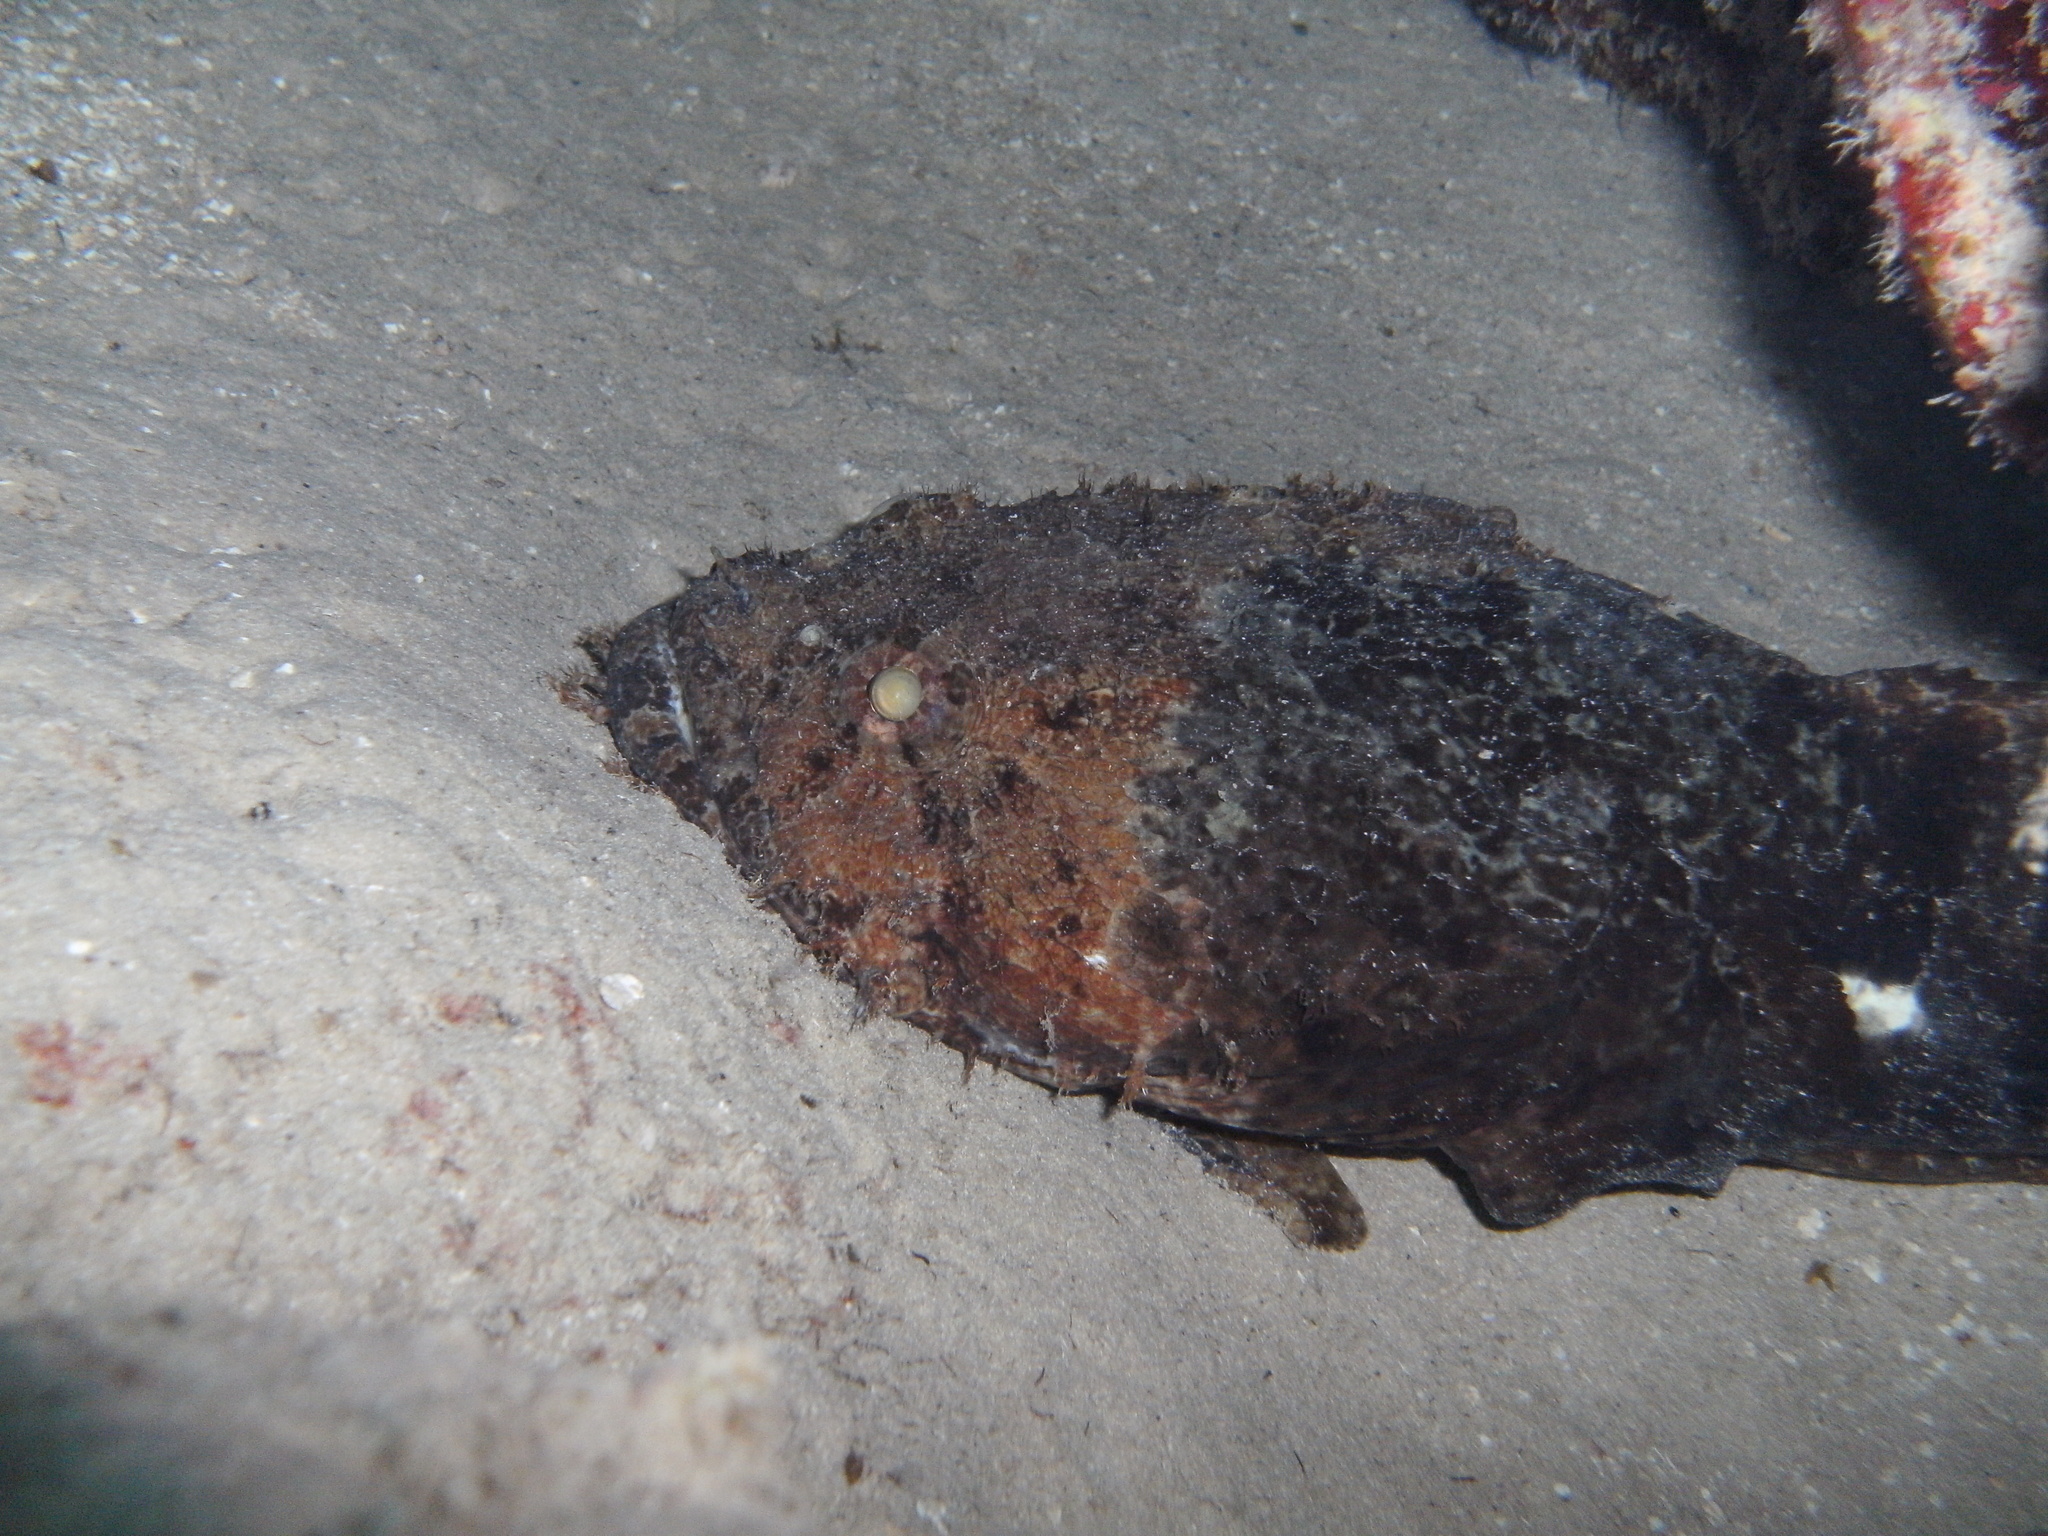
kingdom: Animalia
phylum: Chordata
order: Batrachoidiformes
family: Batrachoididae
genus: Sanopus
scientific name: Sanopus barbatus
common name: Bearded toadfish
